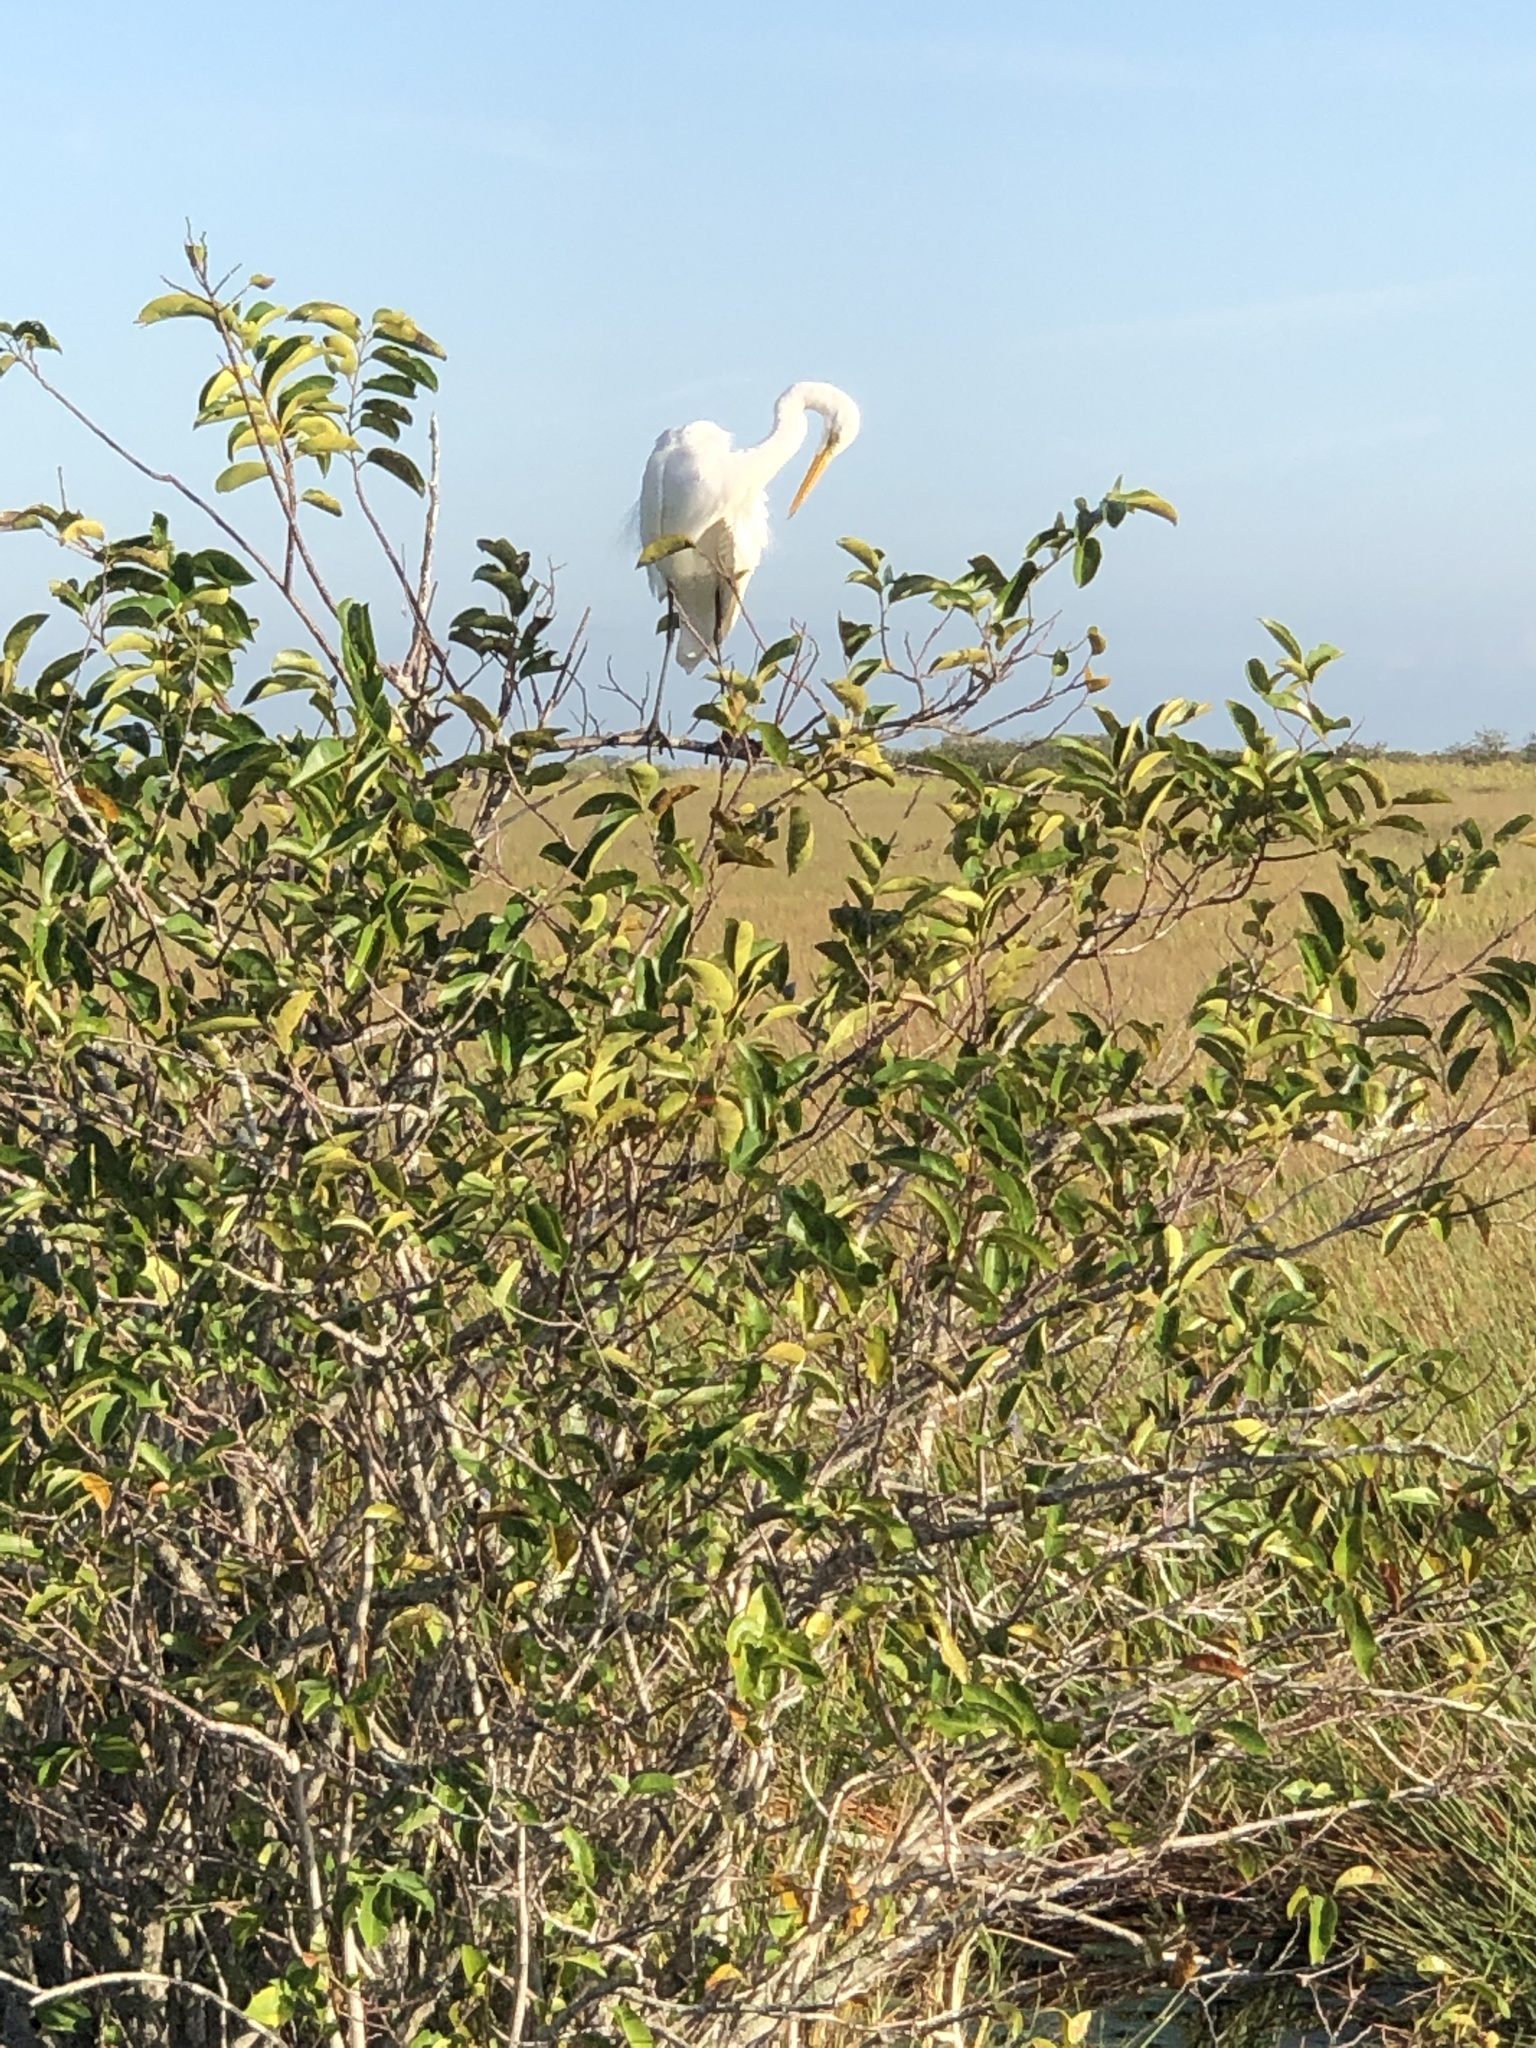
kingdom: Animalia
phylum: Chordata
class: Aves
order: Pelecaniformes
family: Ardeidae
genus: Ardea
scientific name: Ardea alba
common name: Great egret
